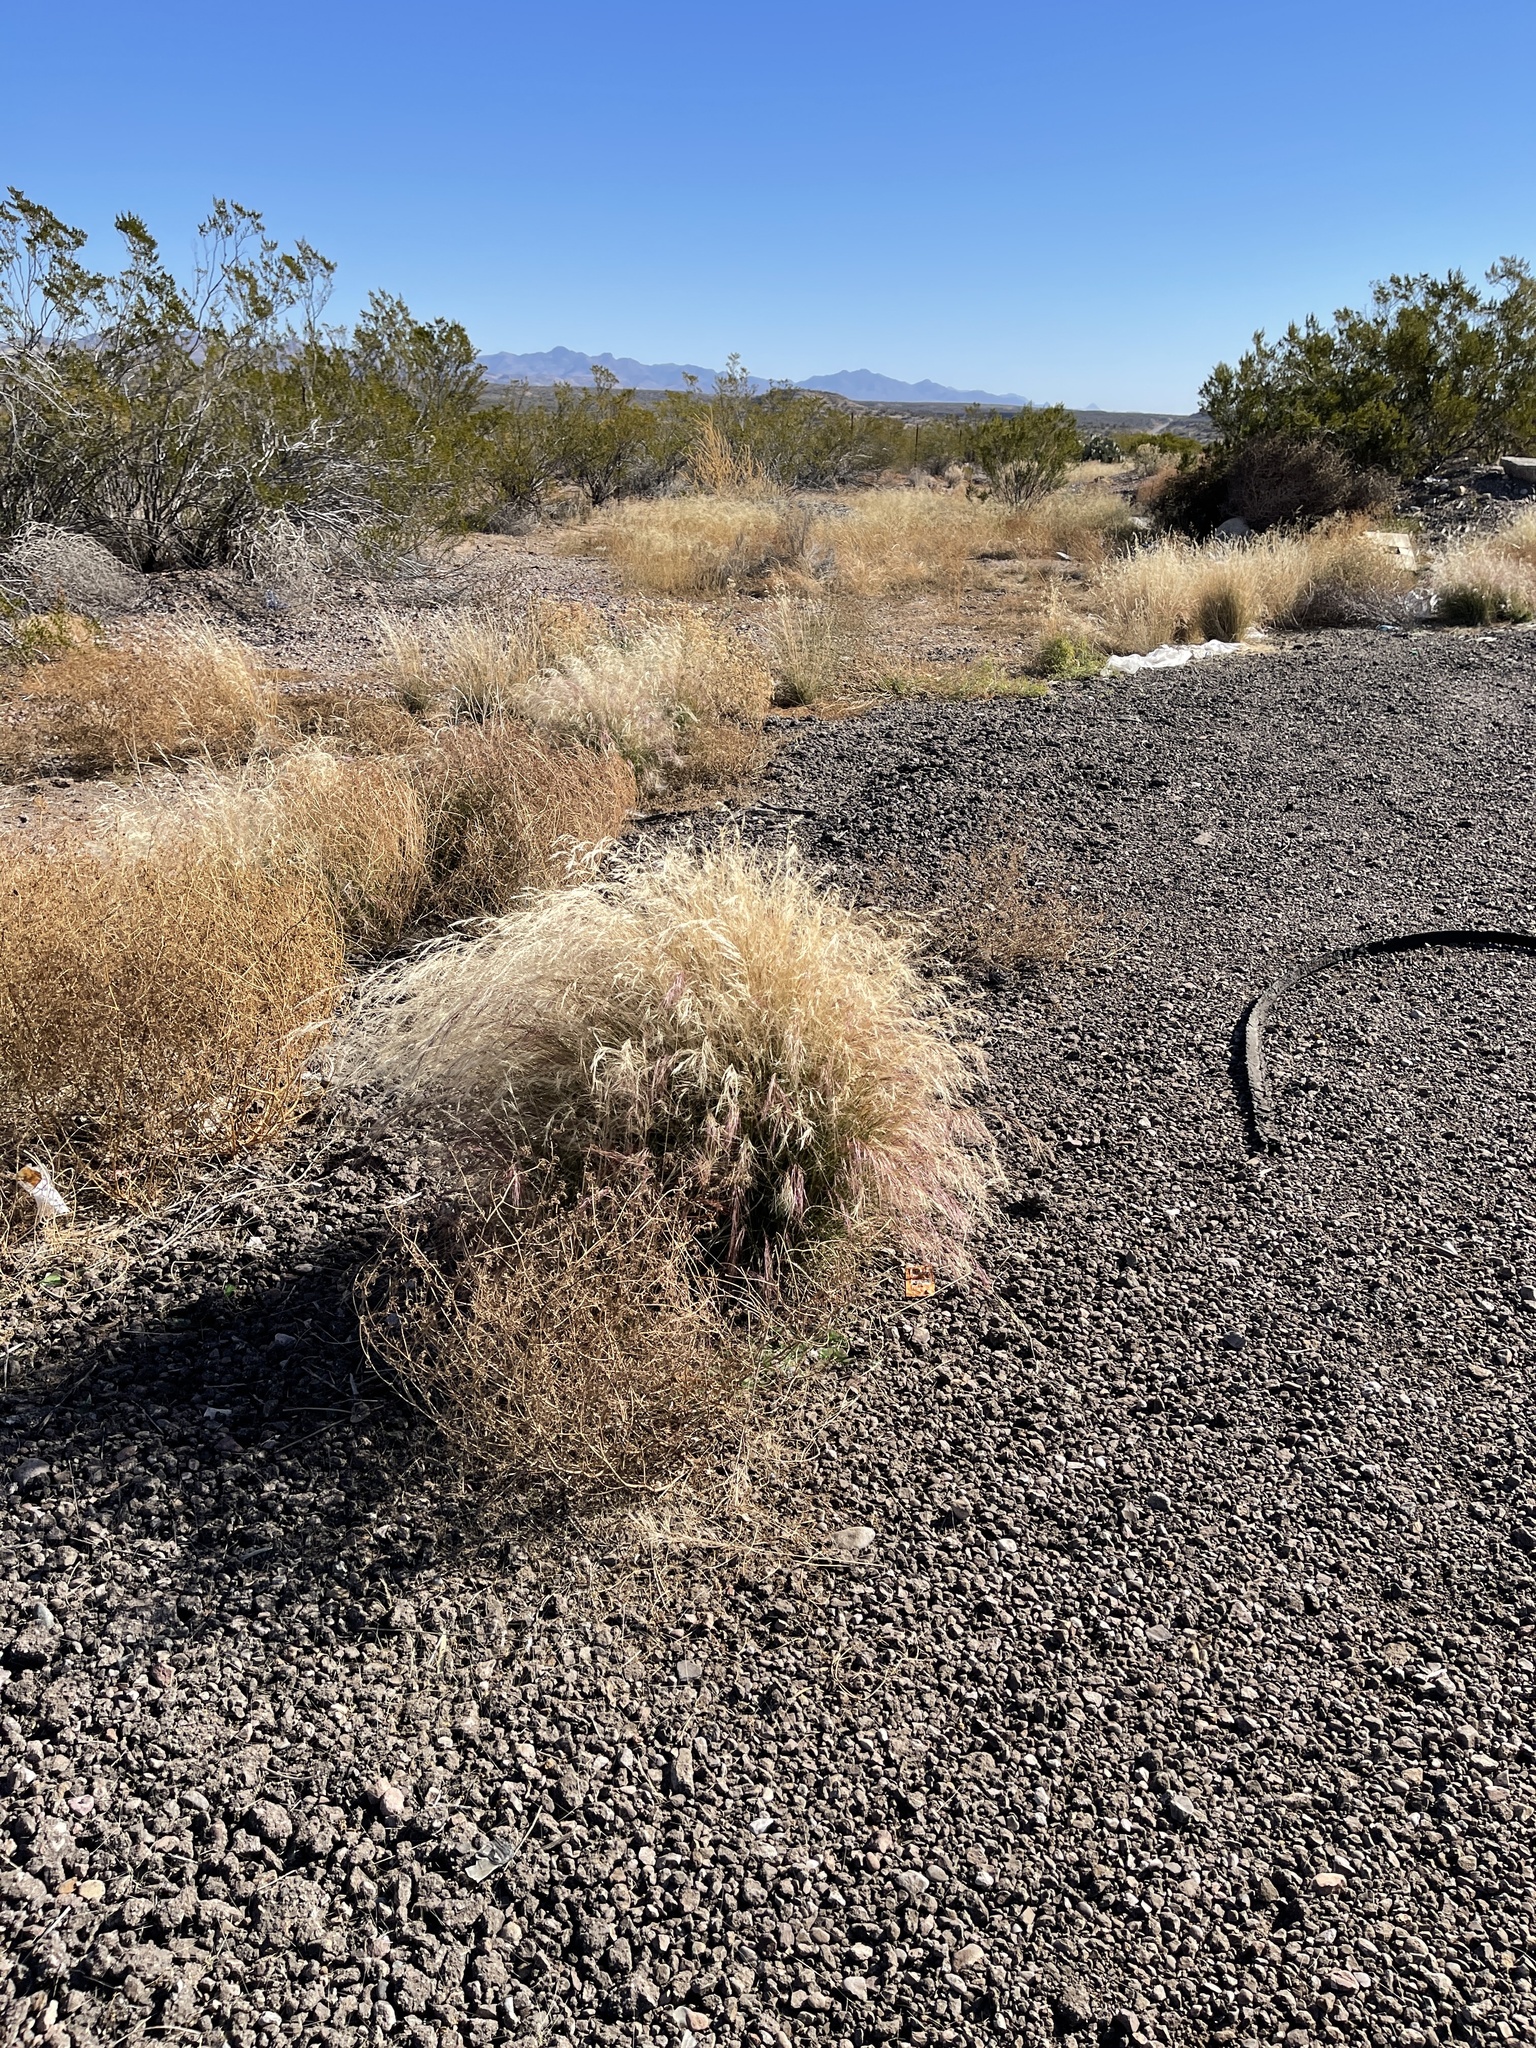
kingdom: Plantae
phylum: Tracheophyta
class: Liliopsida
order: Poales
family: Poaceae
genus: Aristida
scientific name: Aristida purpurea
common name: Purple threeawn
